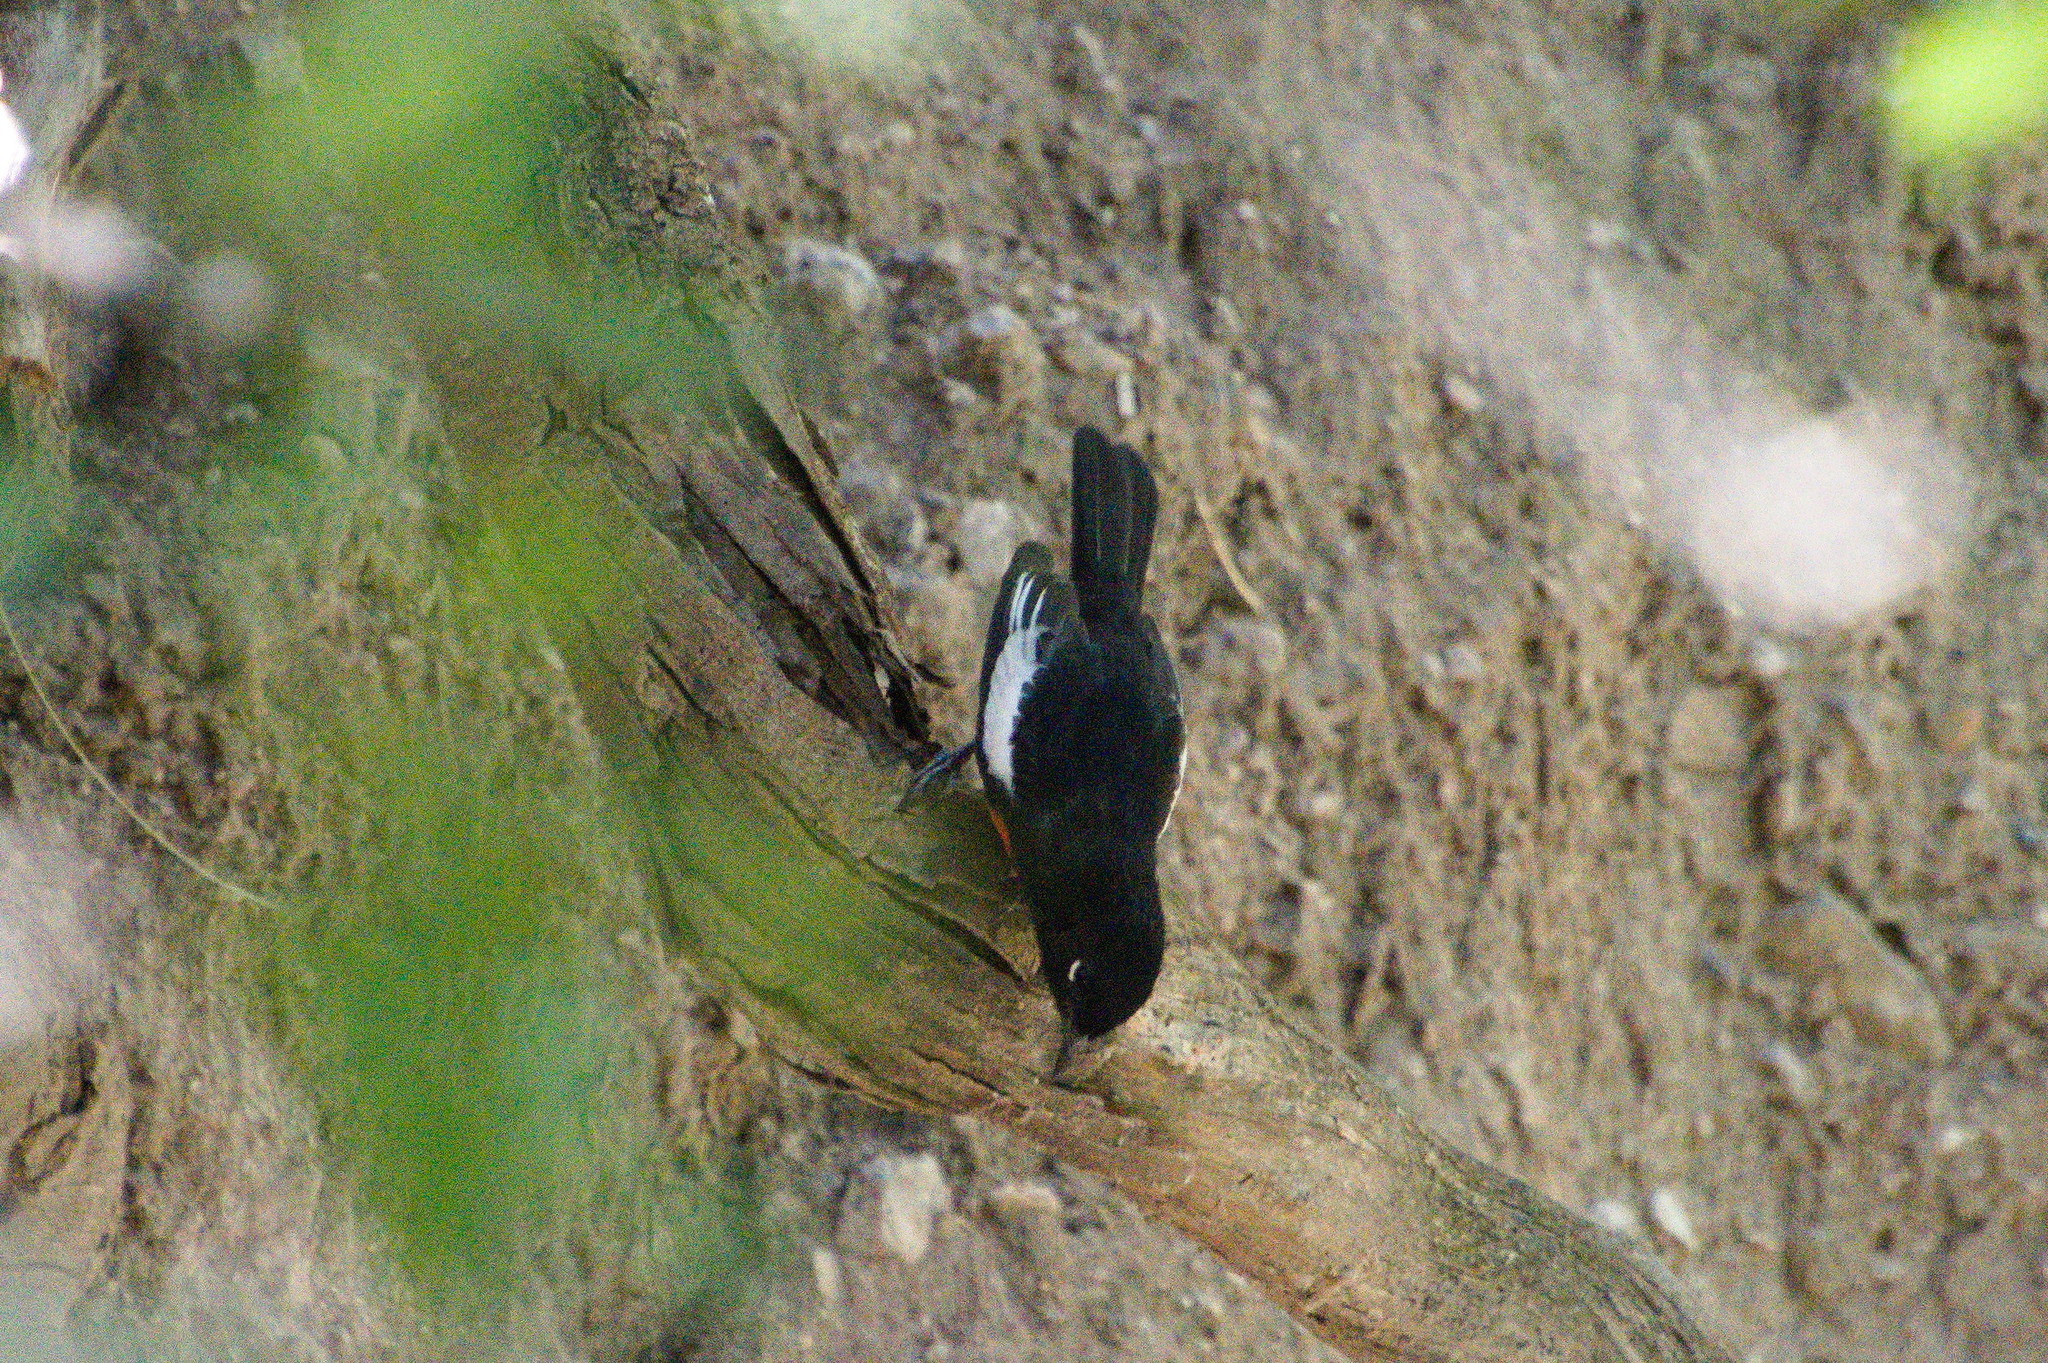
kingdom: Animalia
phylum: Chordata
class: Aves
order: Passeriformes
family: Parulidae
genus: Myioborus
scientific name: Myioborus pictus
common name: Painted whitestart
